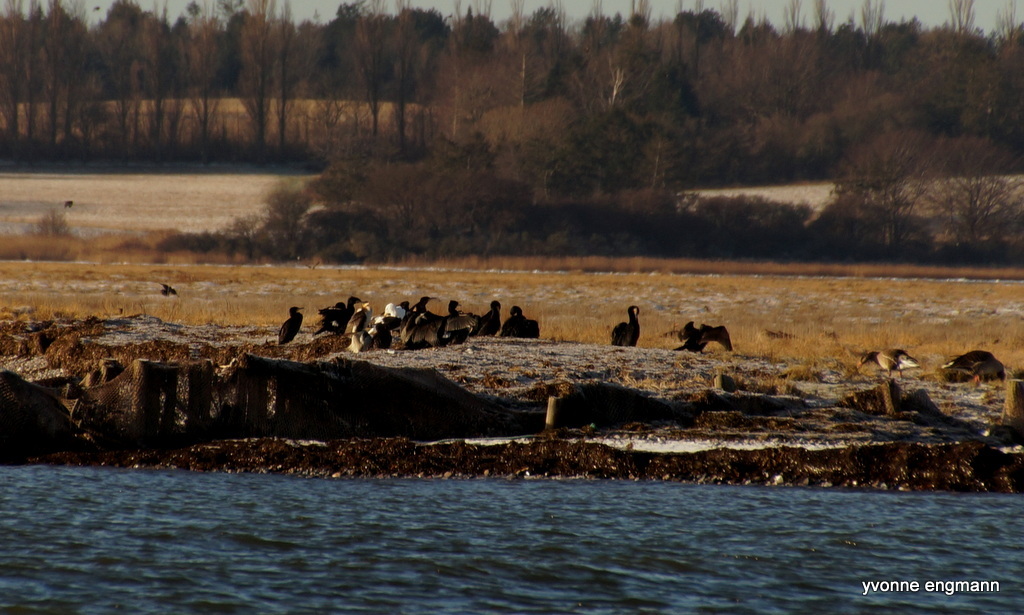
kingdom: Animalia
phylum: Chordata
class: Aves
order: Suliformes
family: Phalacrocoracidae
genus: Phalacrocorax
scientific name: Phalacrocorax carbo
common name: Great cormorant
